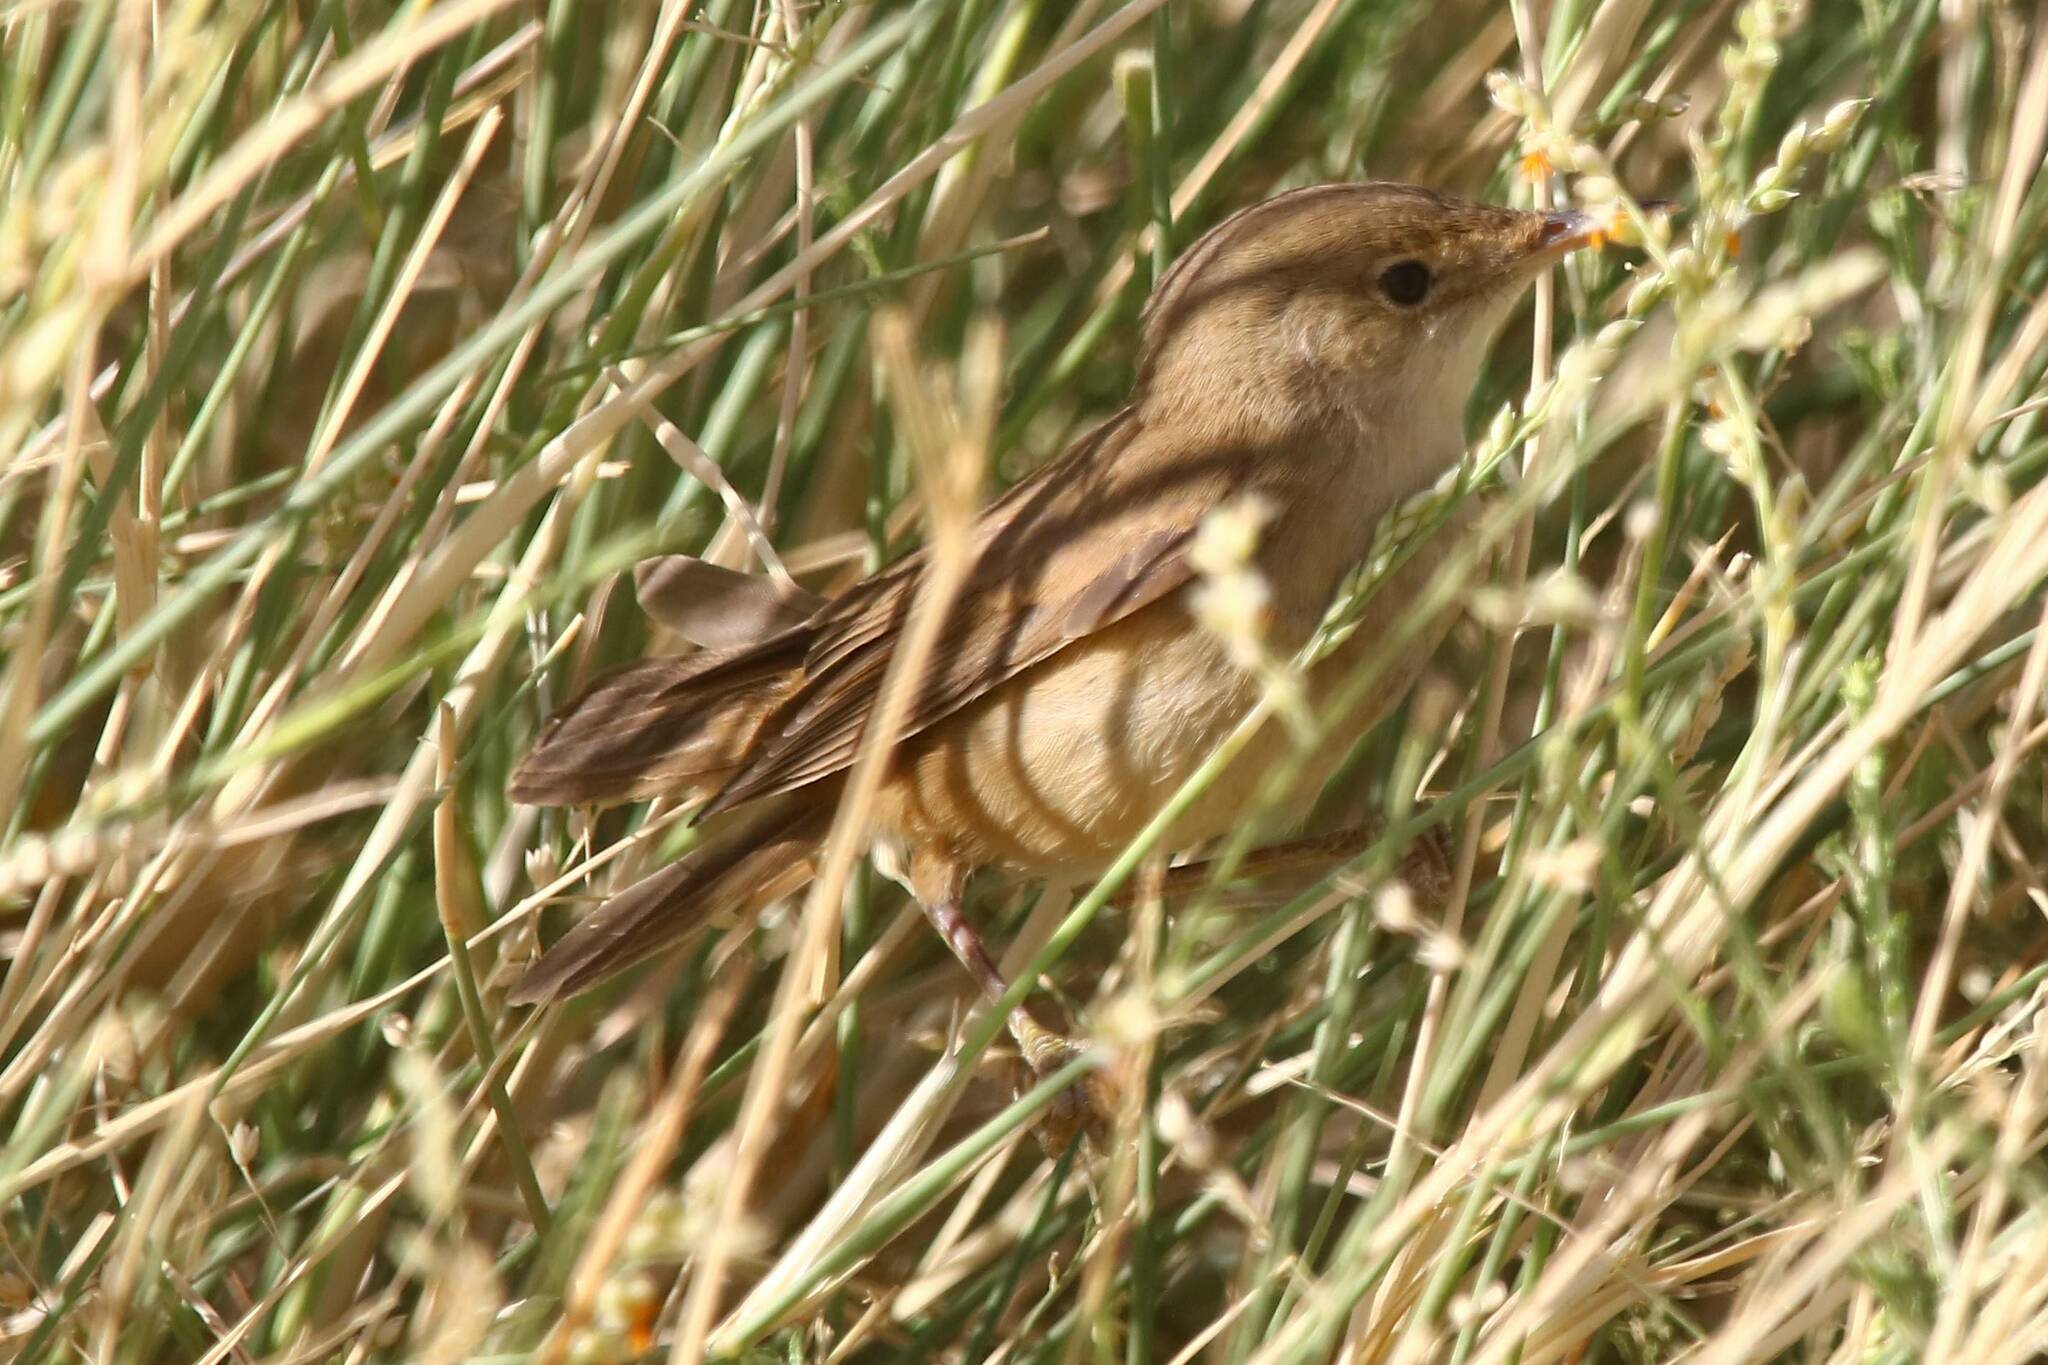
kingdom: Animalia
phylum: Chordata
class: Aves
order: Passeriformes
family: Acrocephalidae
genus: Acrocephalus
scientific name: Acrocephalus baeticatus
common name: African reed warbler
